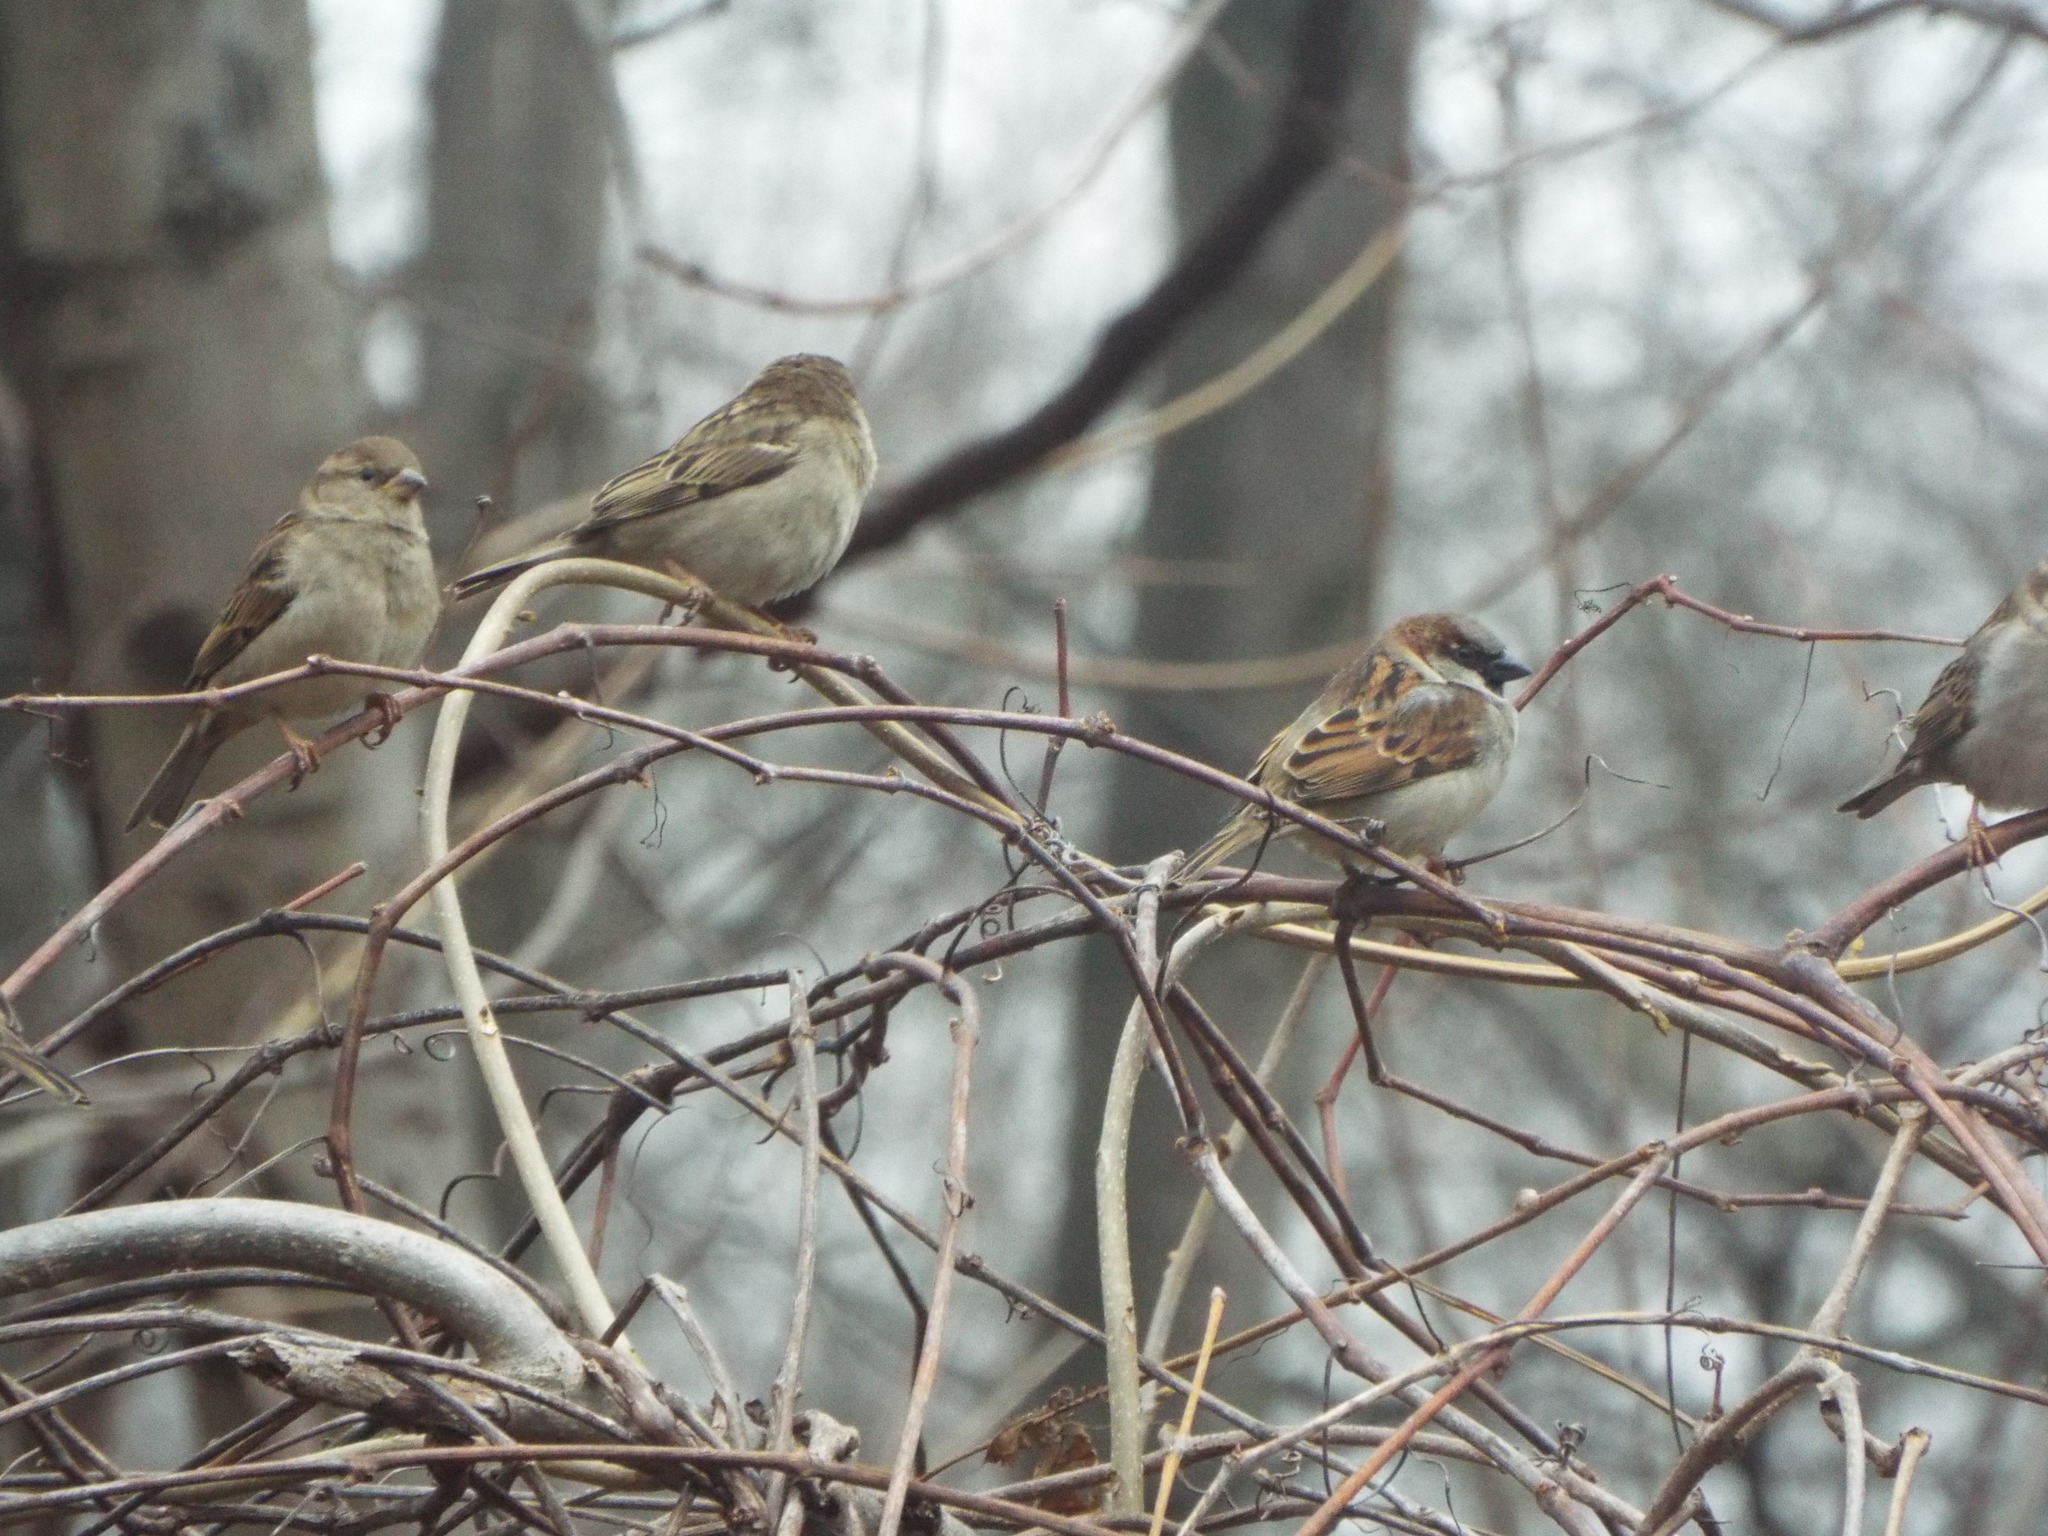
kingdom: Animalia
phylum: Chordata
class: Aves
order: Passeriformes
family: Passeridae
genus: Passer
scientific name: Passer domesticus
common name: House sparrow
